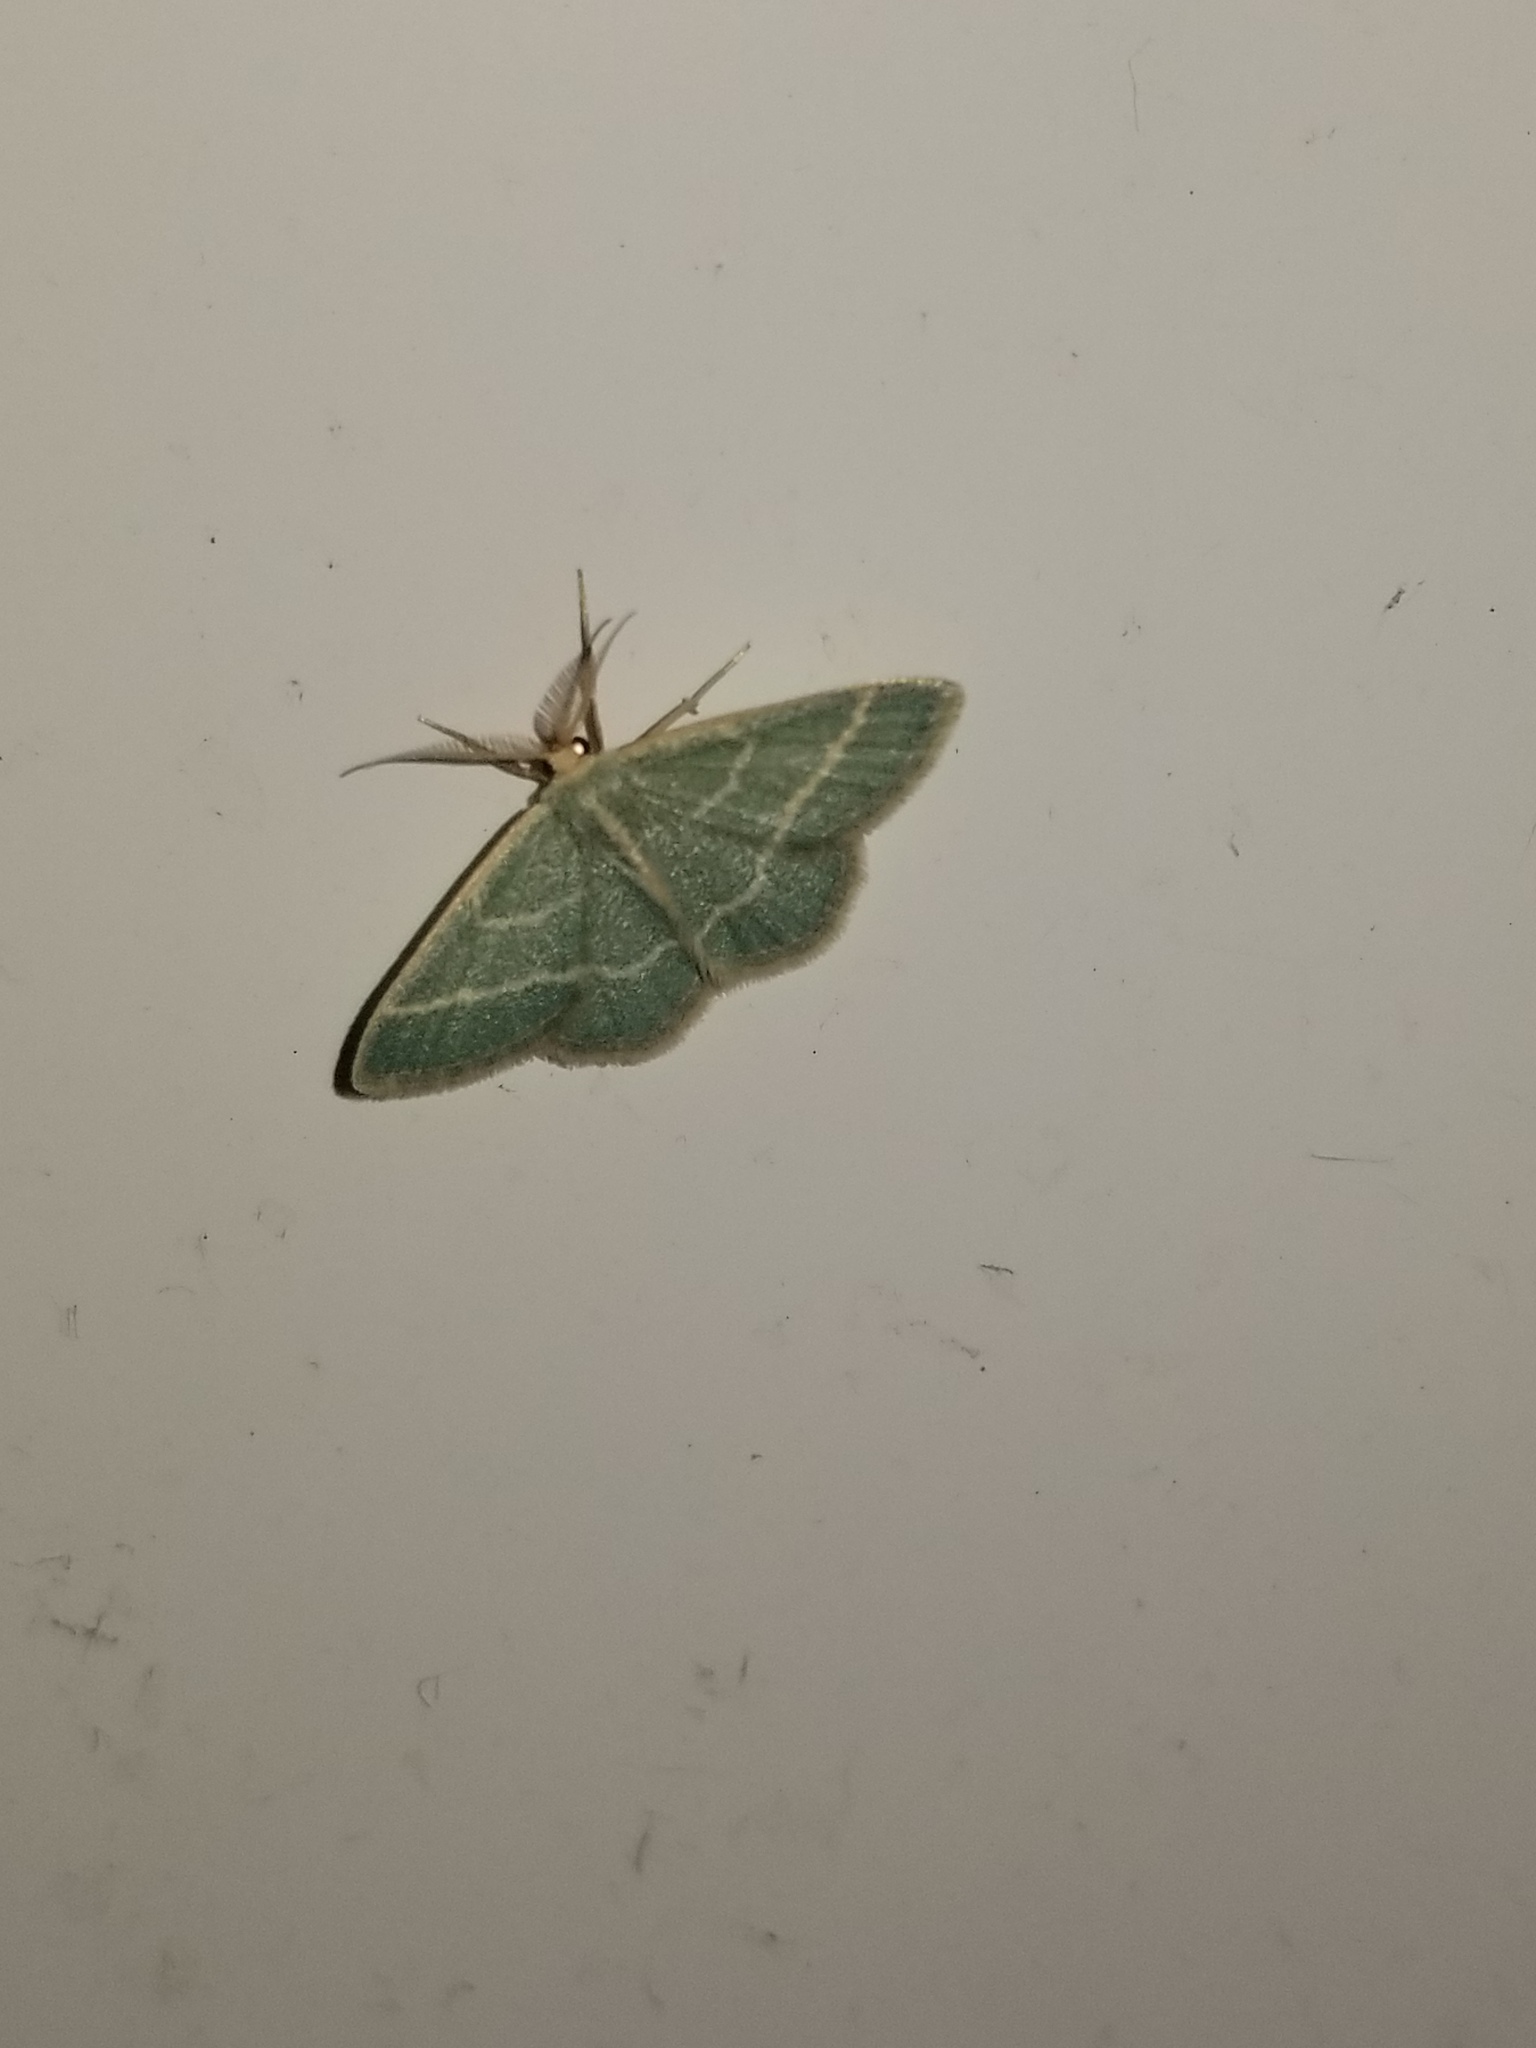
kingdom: Animalia
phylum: Arthropoda
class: Insecta
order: Lepidoptera
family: Geometridae
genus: Chlorochlamys
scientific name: Chlorochlamys chloroleucaria
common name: Blackberry looper
